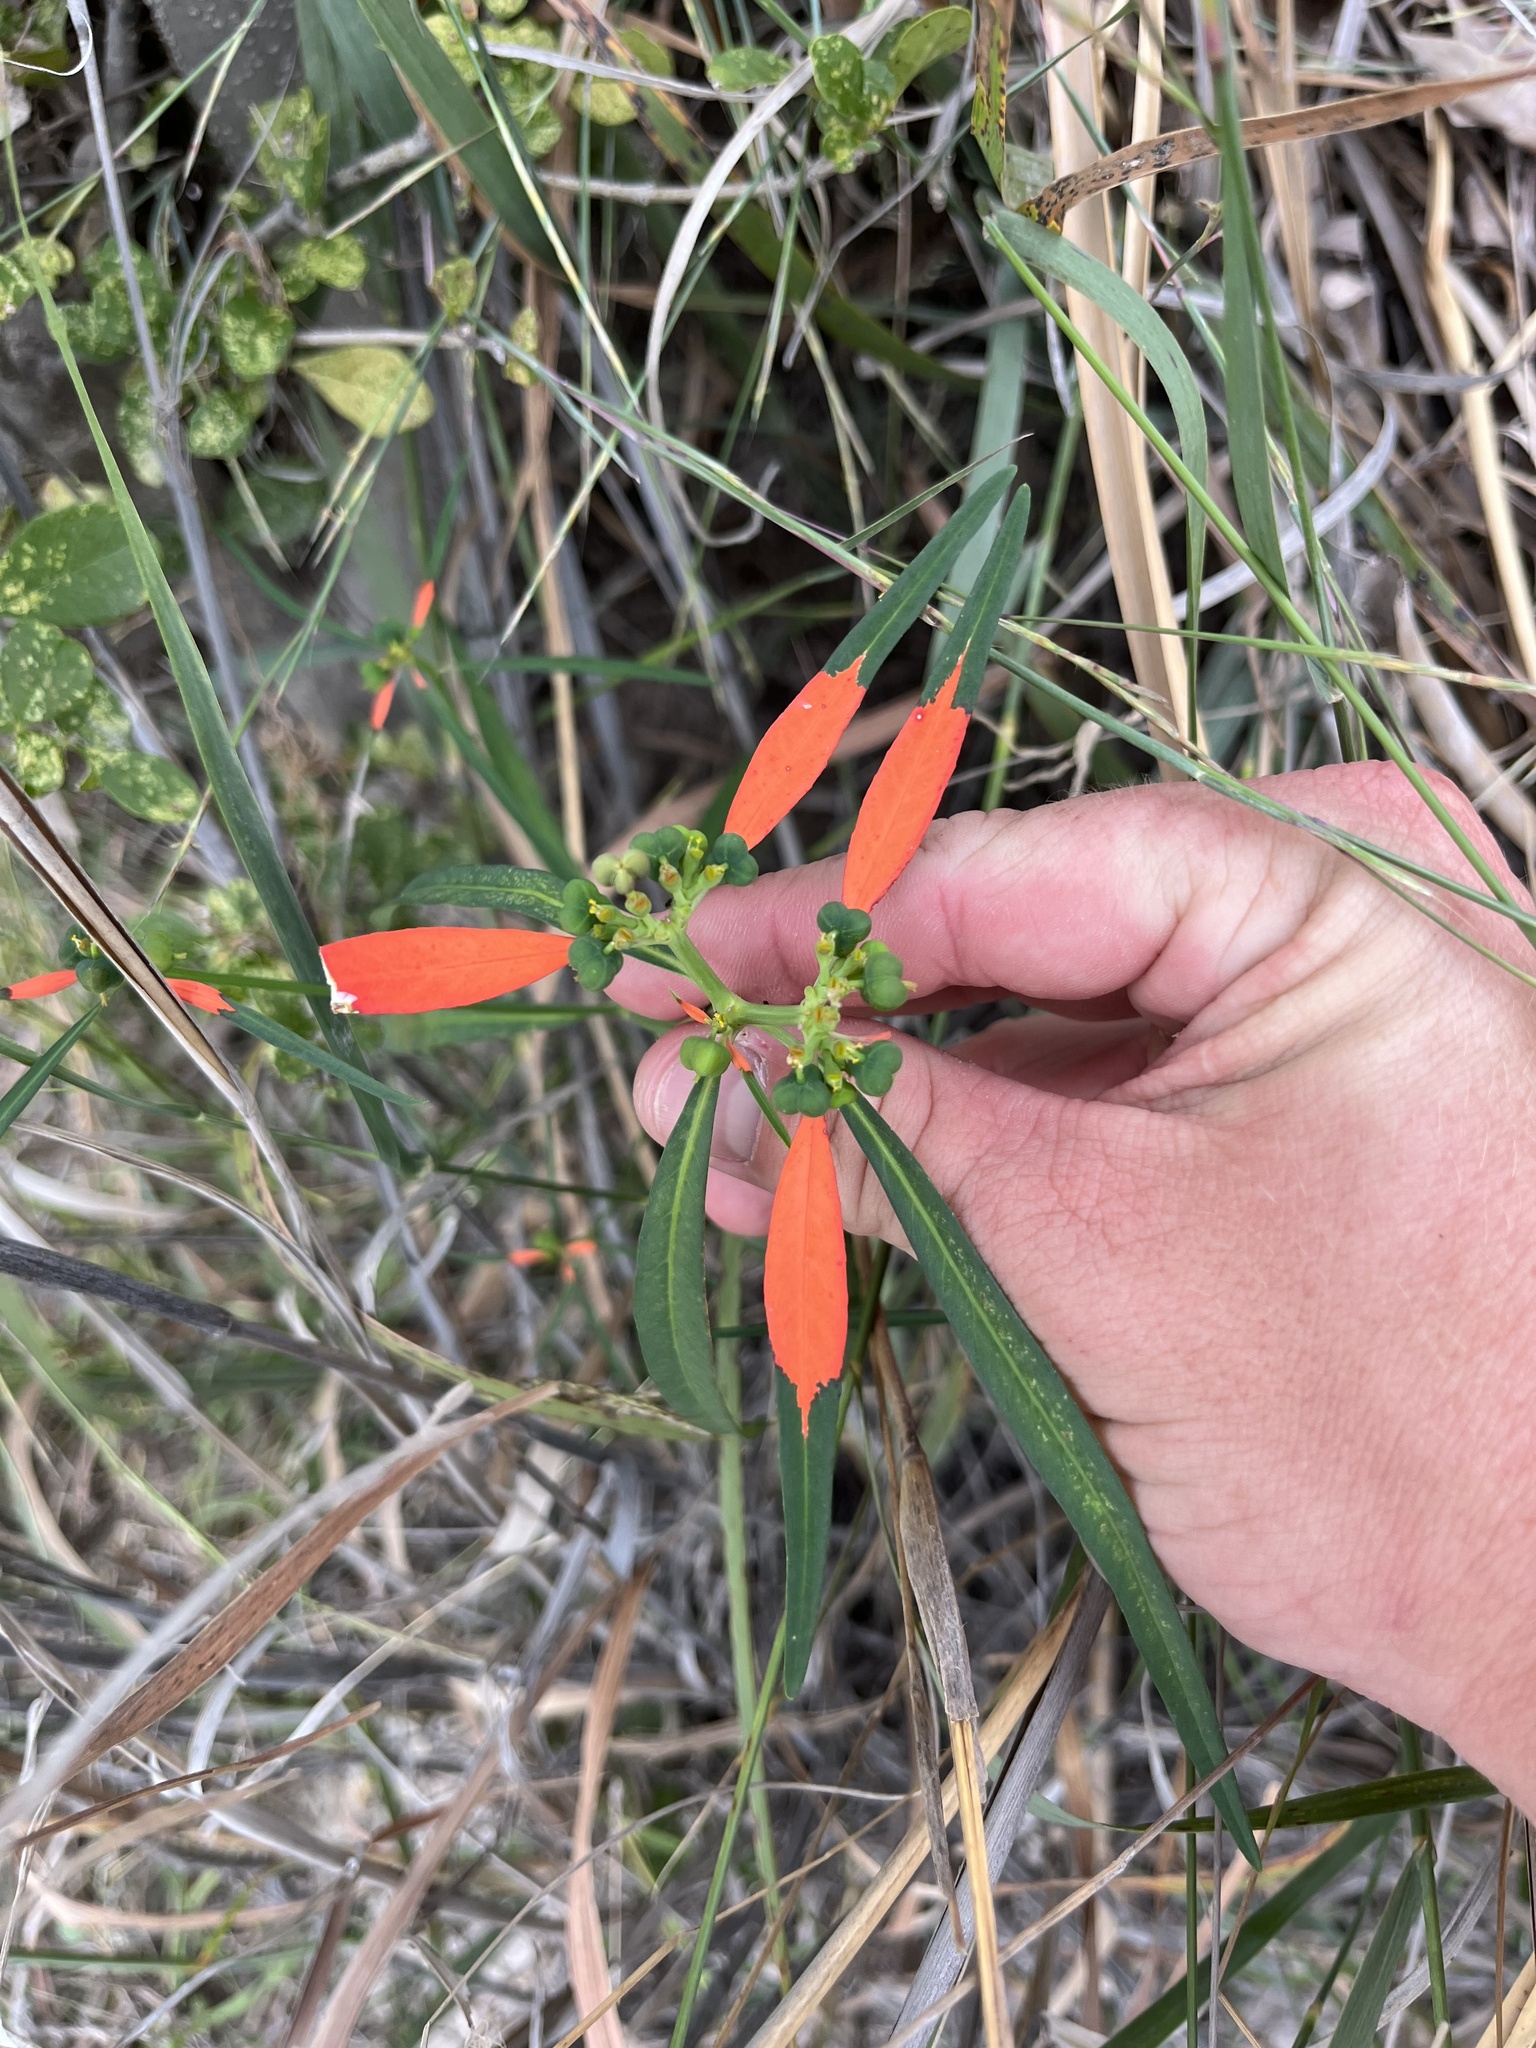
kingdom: Plantae
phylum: Tracheophyta
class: Magnoliopsida
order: Malpighiales
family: Euphorbiaceae
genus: Euphorbia
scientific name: Euphorbia heterophylla
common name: Mexican fireplant
